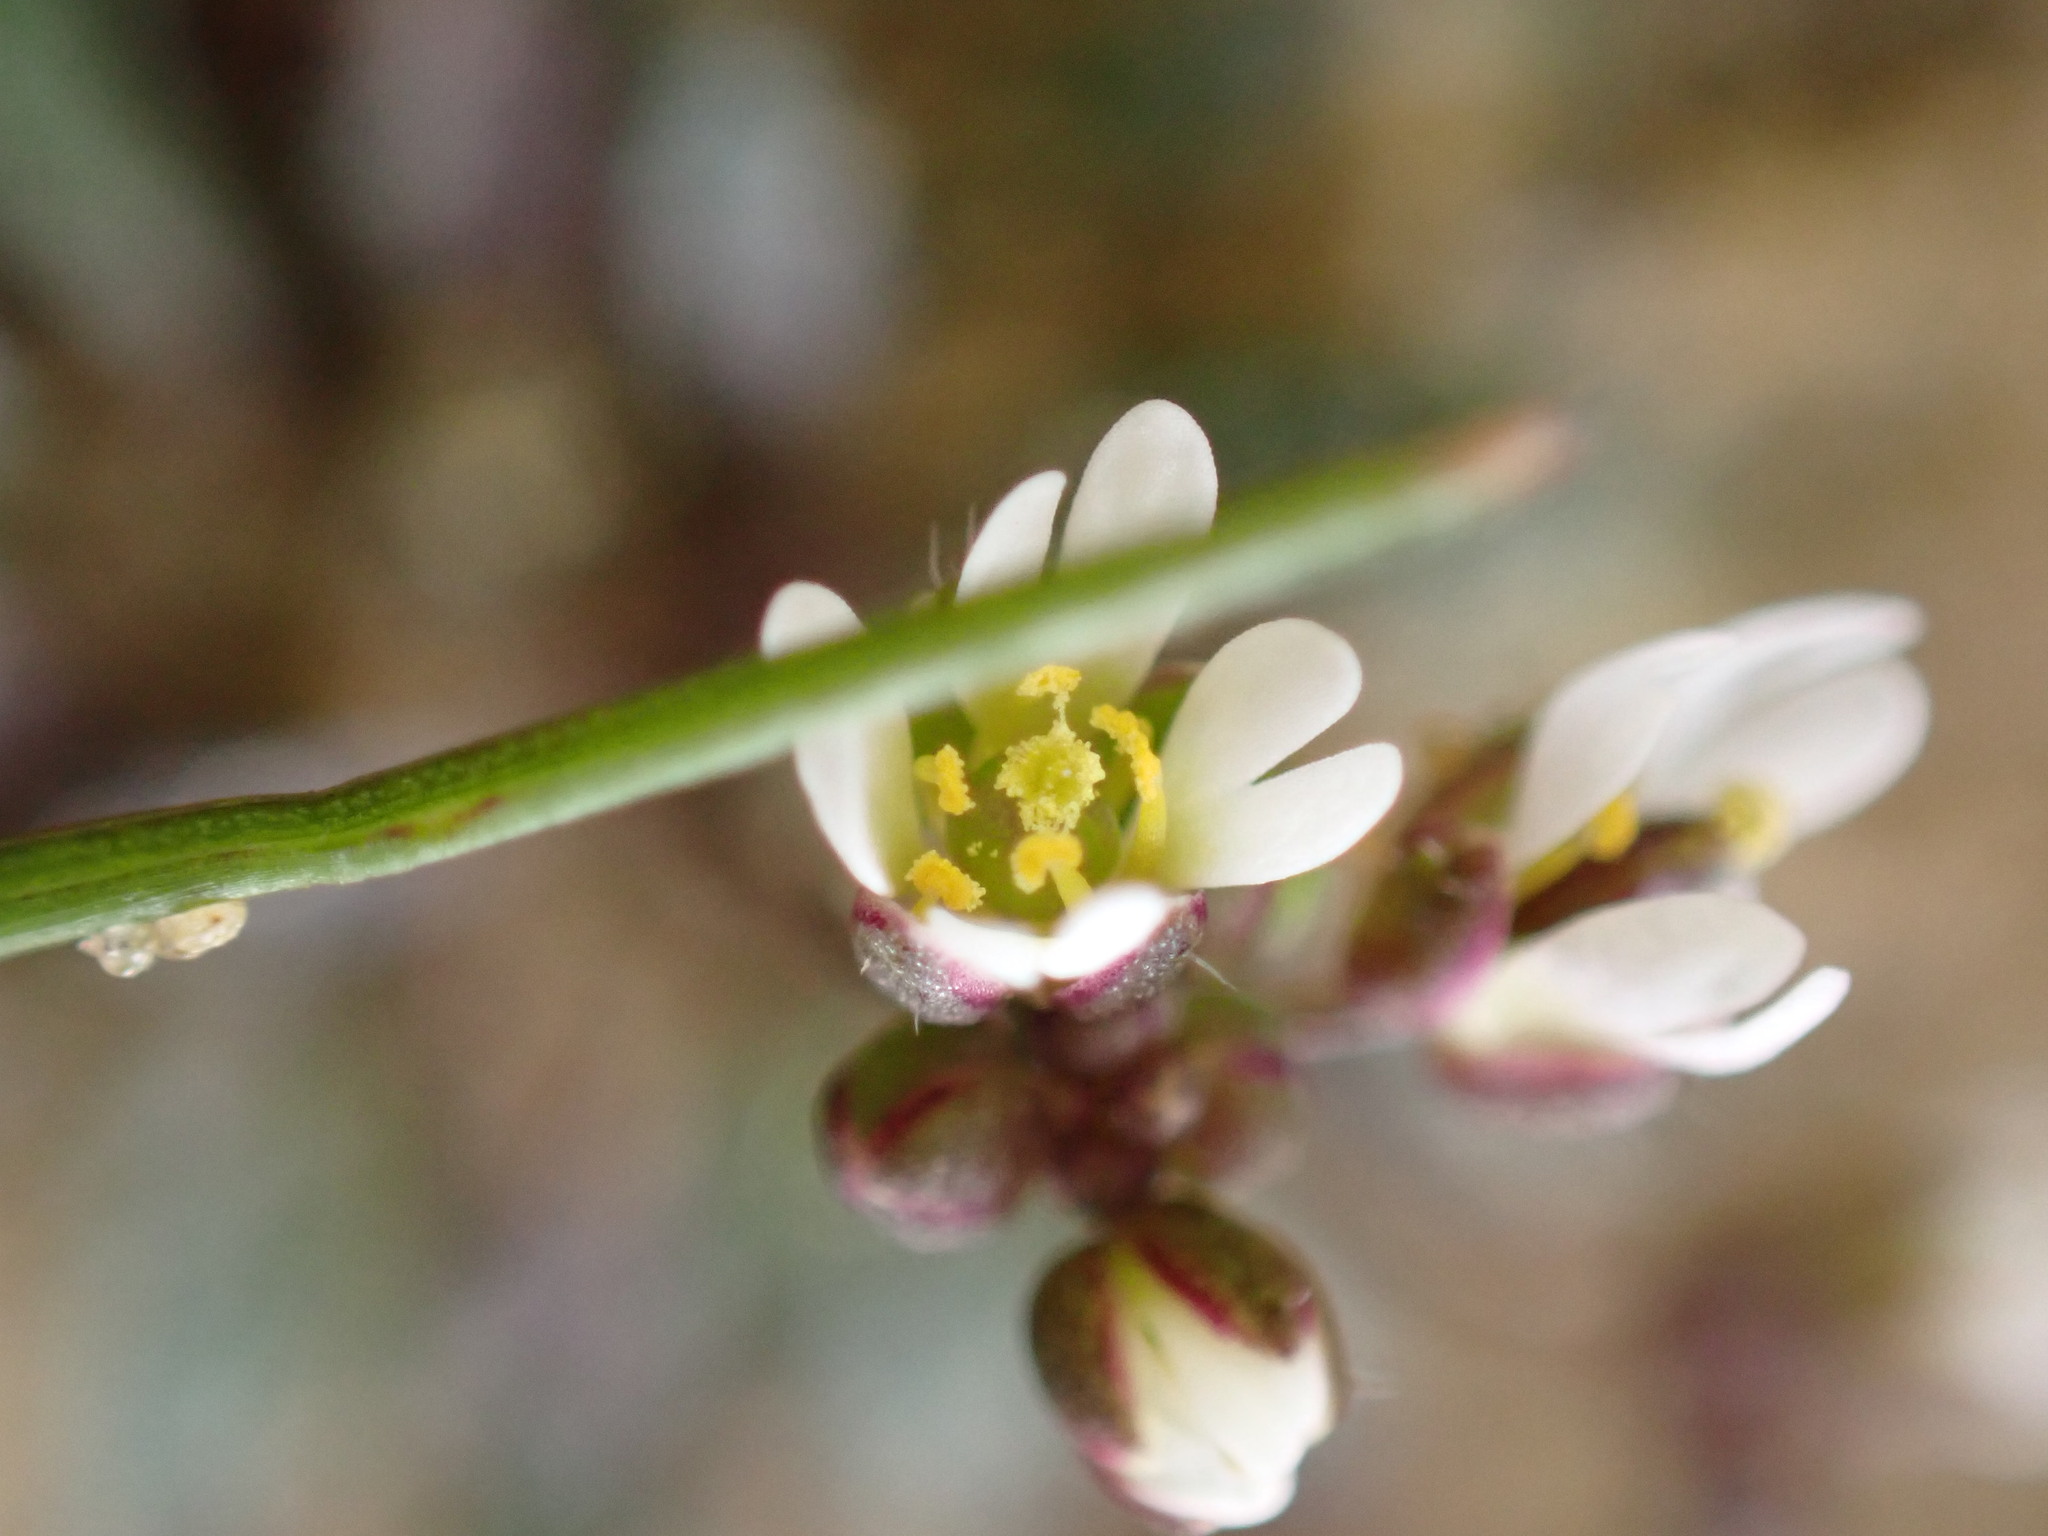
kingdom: Plantae
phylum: Tracheophyta
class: Magnoliopsida
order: Brassicales
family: Brassicaceae
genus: Draba
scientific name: Draba verna
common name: Spring draba
